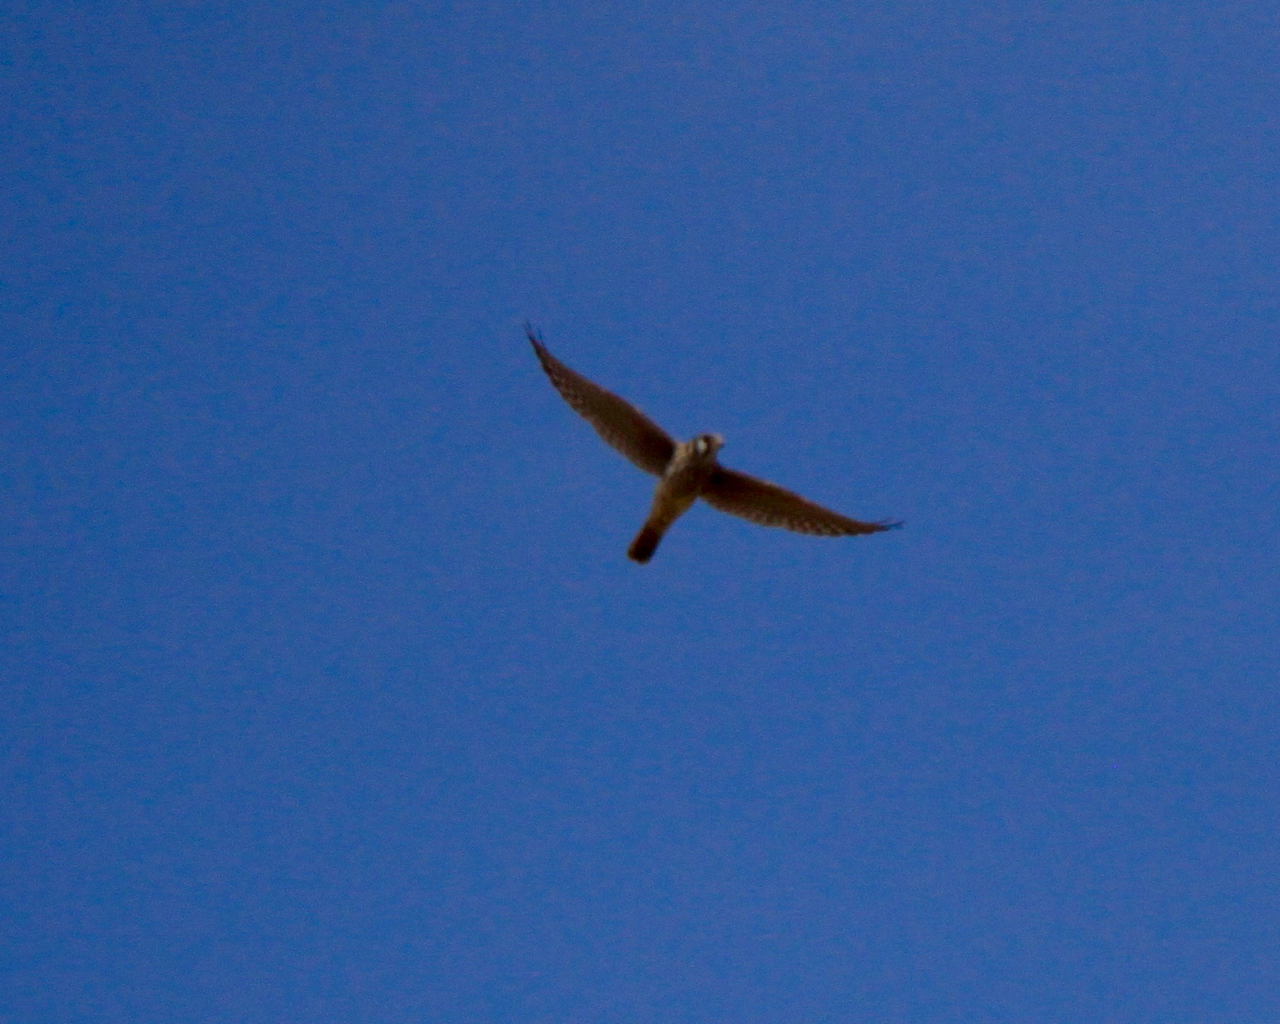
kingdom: Animalia
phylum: Chordata
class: Aves
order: Falconiformes
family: Falconidae
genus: Falco
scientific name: Falco sparverius
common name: American kestrel
